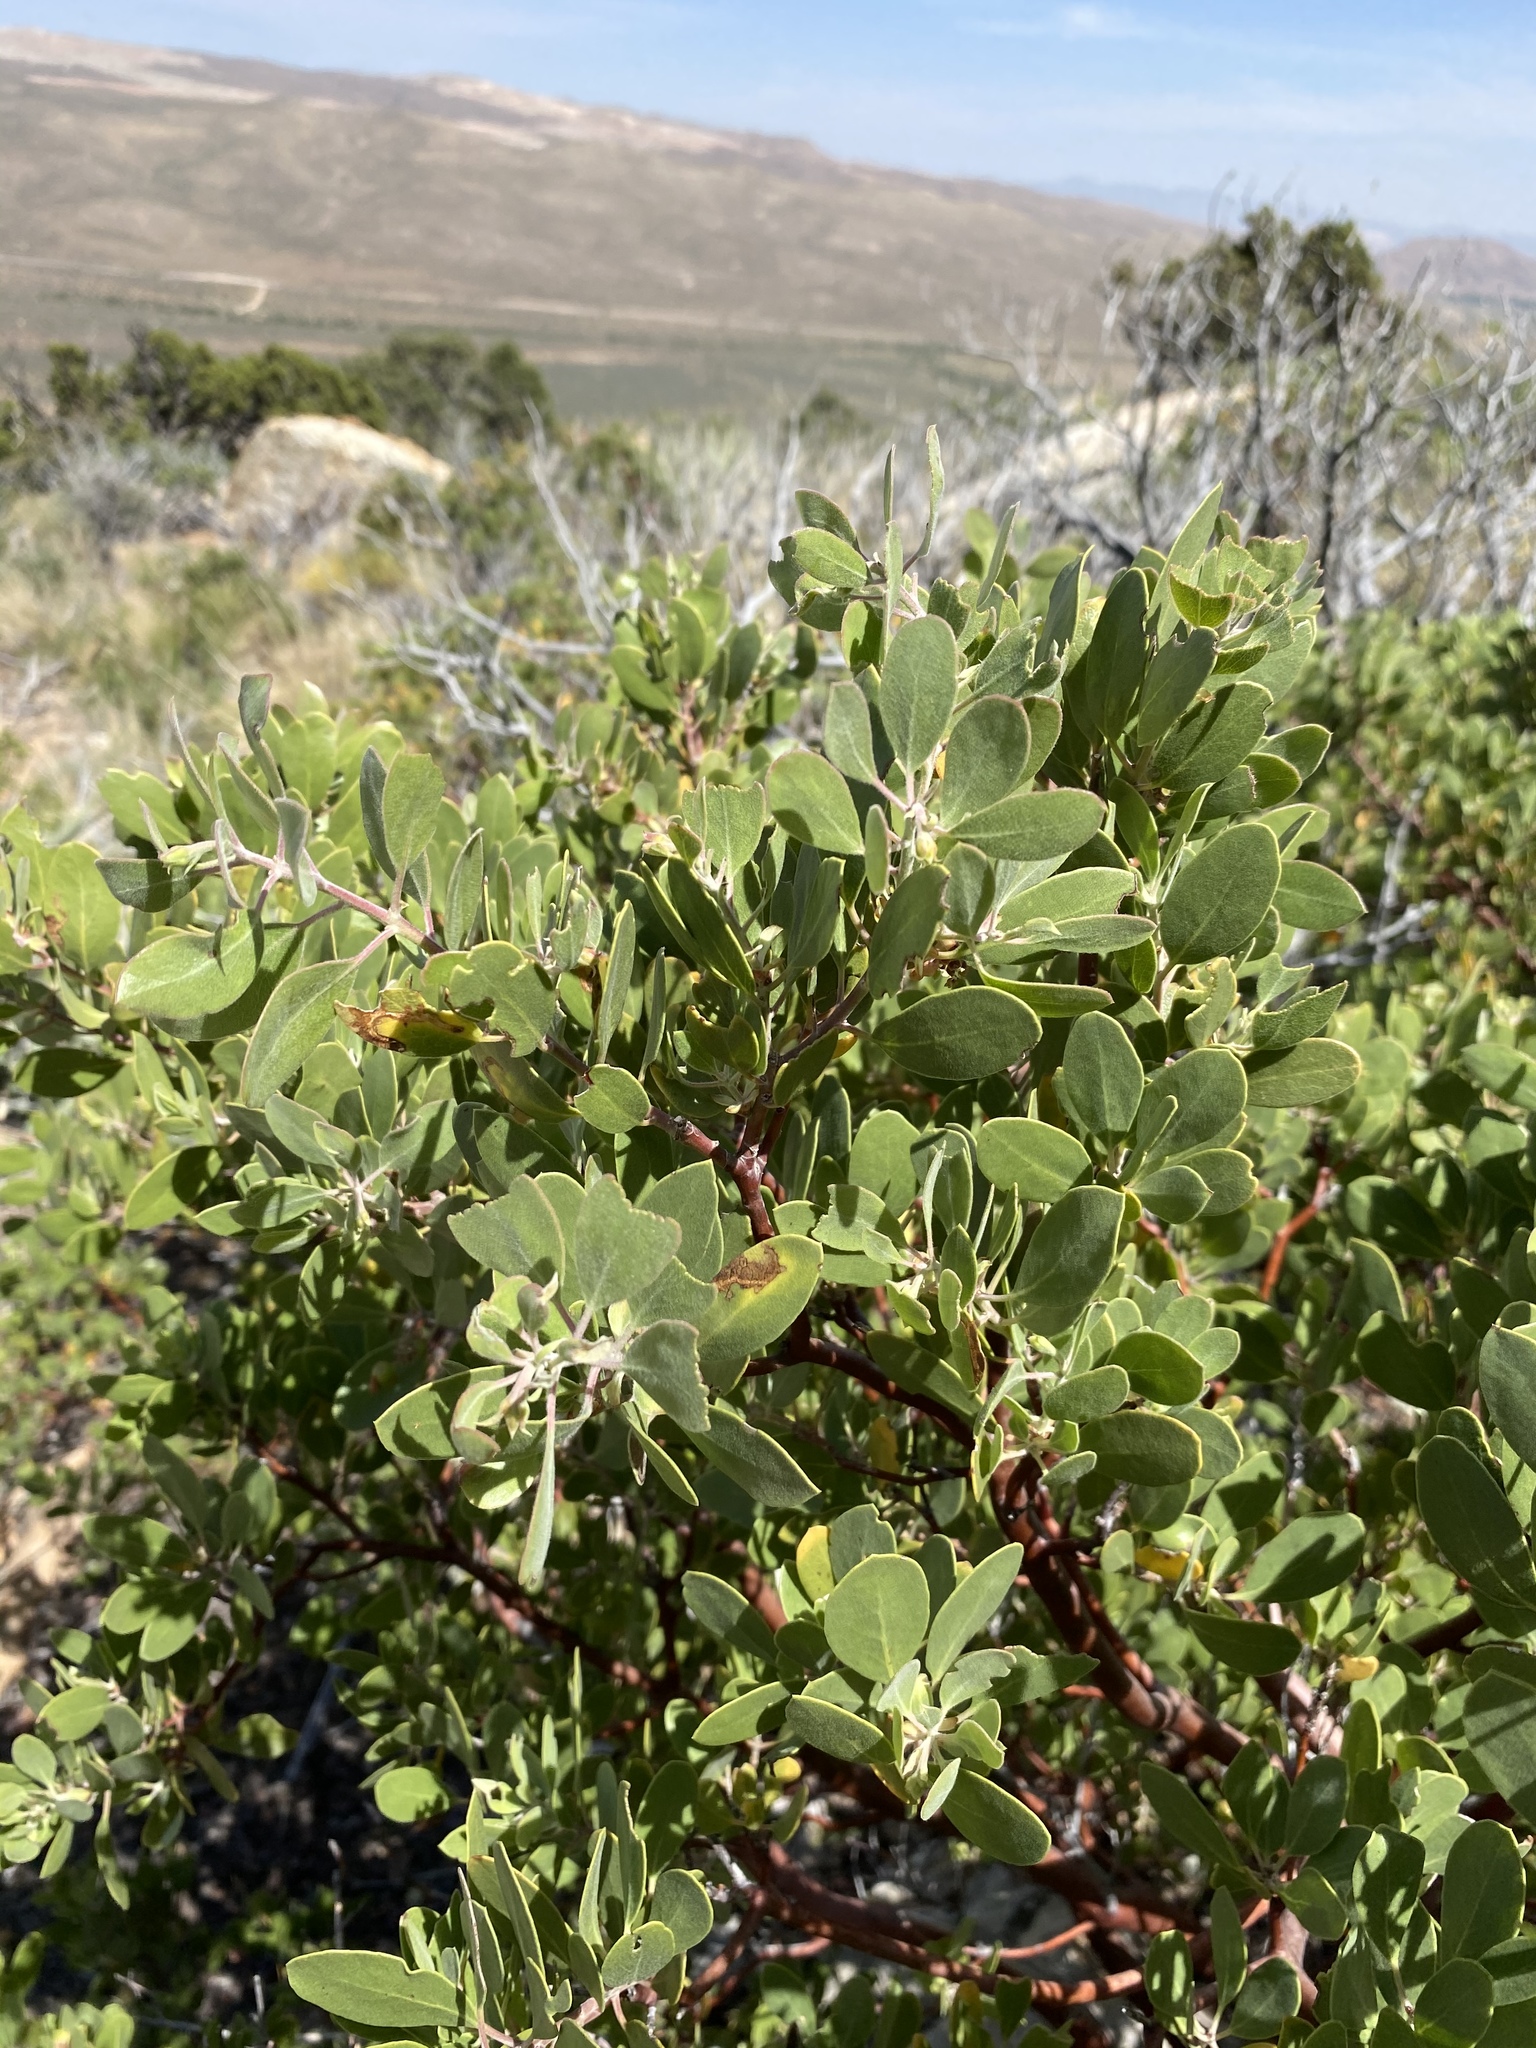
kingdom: Plantae
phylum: Tracheophyta
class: Magnoliopsida
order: Ericales
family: Ericaceae
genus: Arctostaphylos
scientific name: Arctostaphylos pungens
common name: Mexican manzanita
